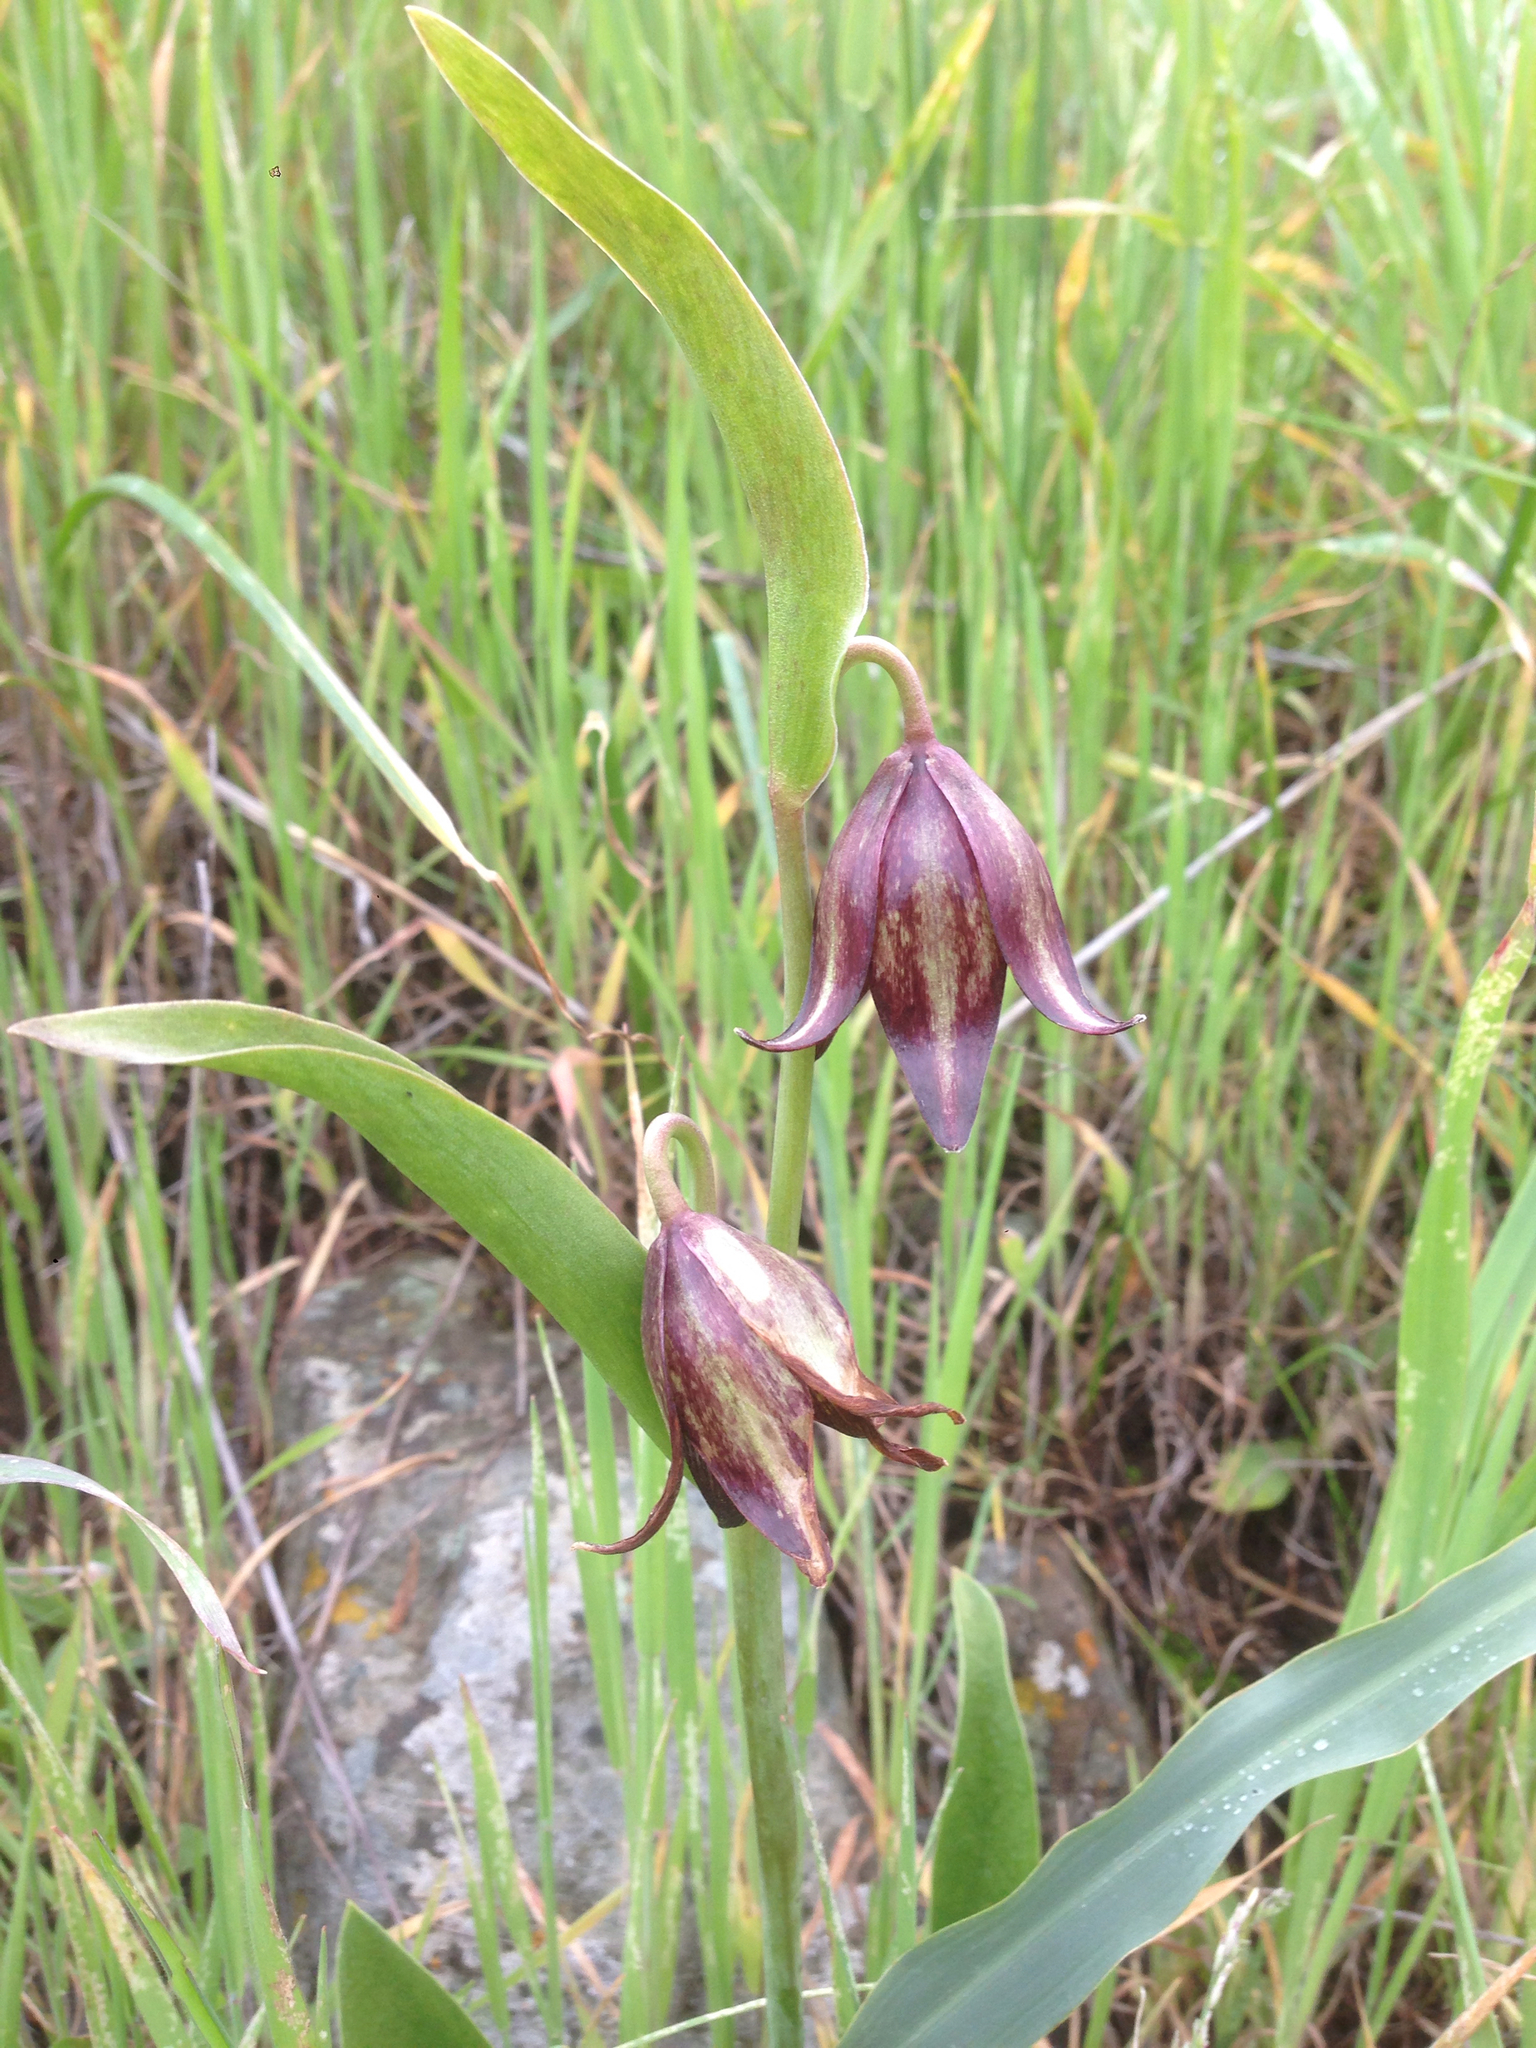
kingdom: Plantae
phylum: Tracheophyta
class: Liliopsida
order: Liliales
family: Liliaceae
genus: Fritillaria
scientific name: Fritillaria biflora
